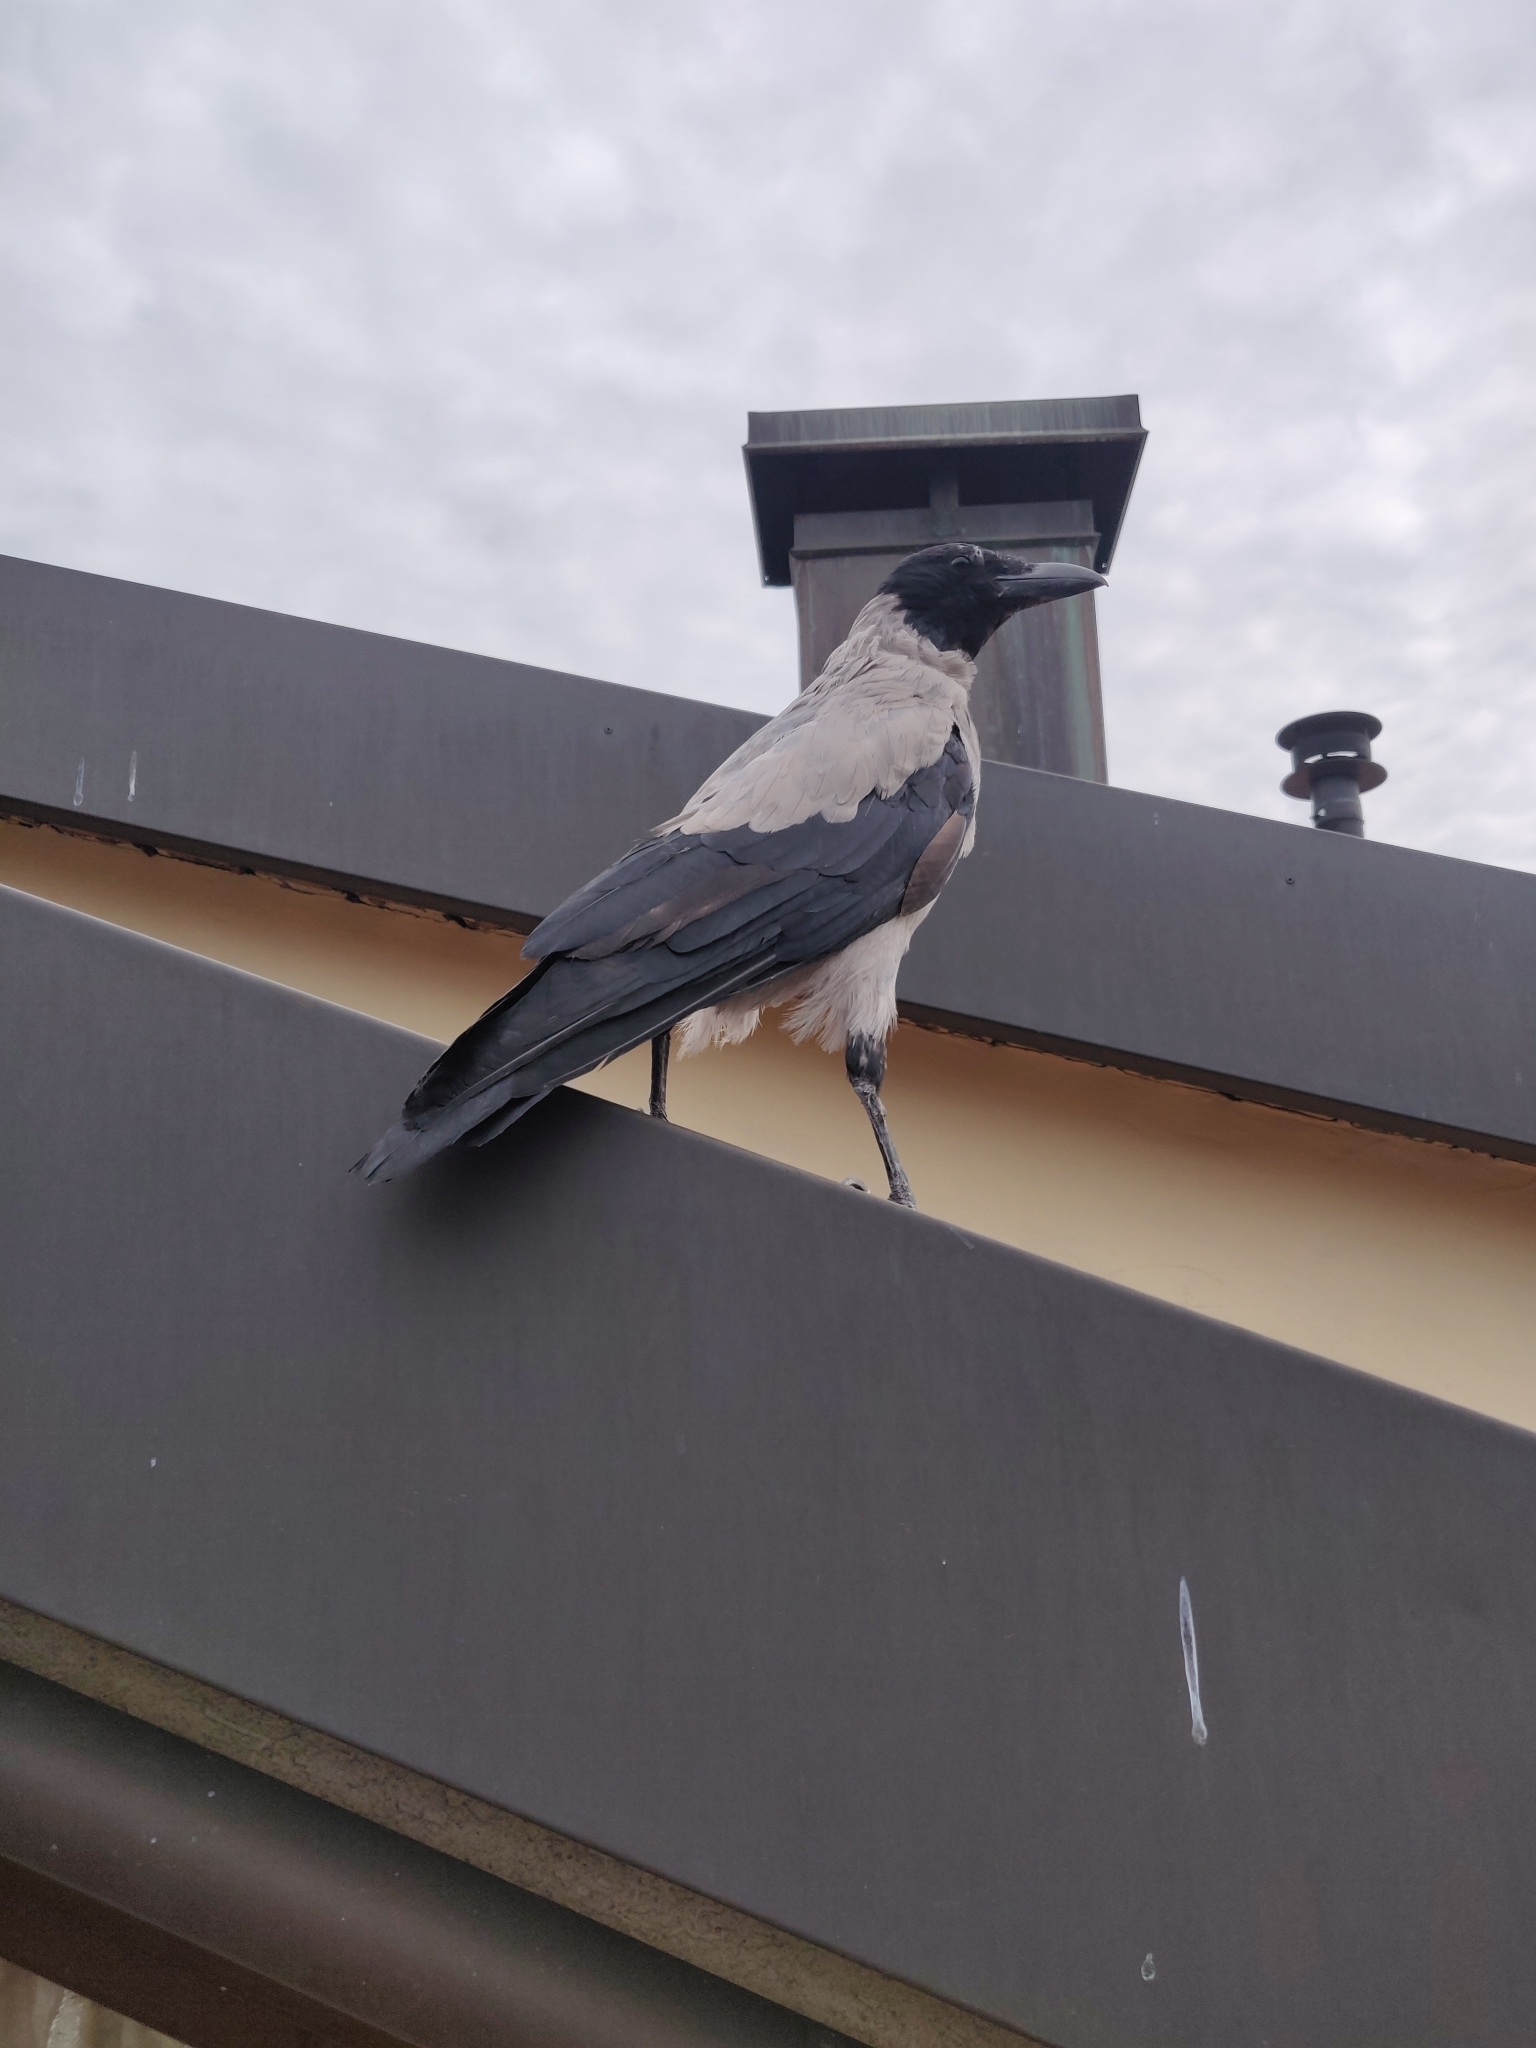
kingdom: Animalia
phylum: Chordata
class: Aves
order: Passeriformes
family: Corvidae
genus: Corvus
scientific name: Corvus cornix
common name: Hooded crow
